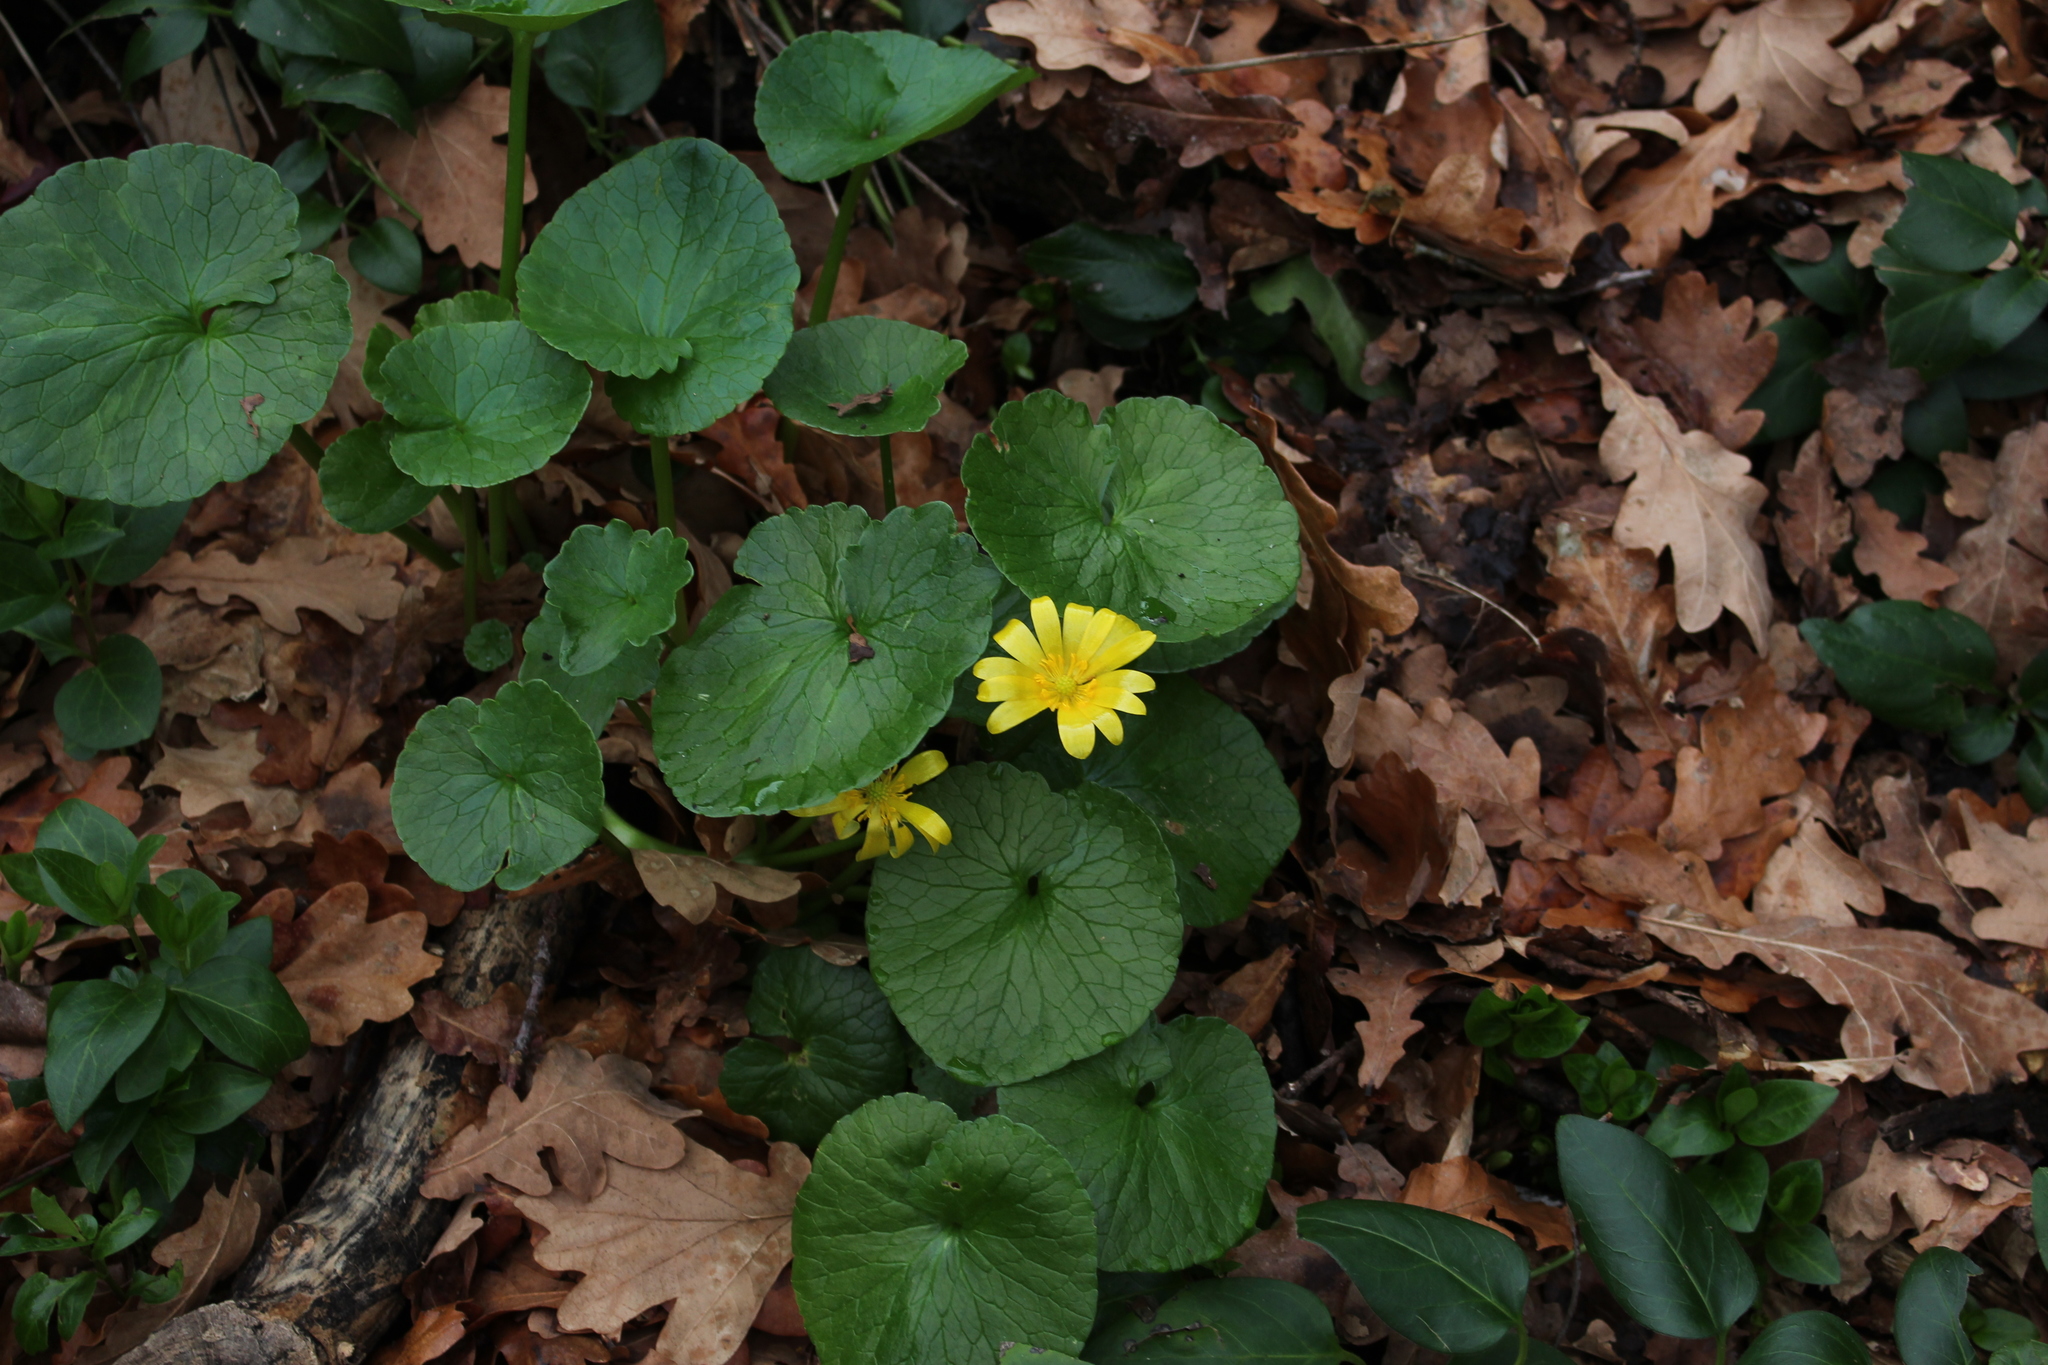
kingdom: Plantae
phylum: Tracheophyta
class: Magnoliopsida
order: Ranunculales
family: Ranunculaceae
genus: Ficaria
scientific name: Ficaria verna
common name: Lesser celandine
